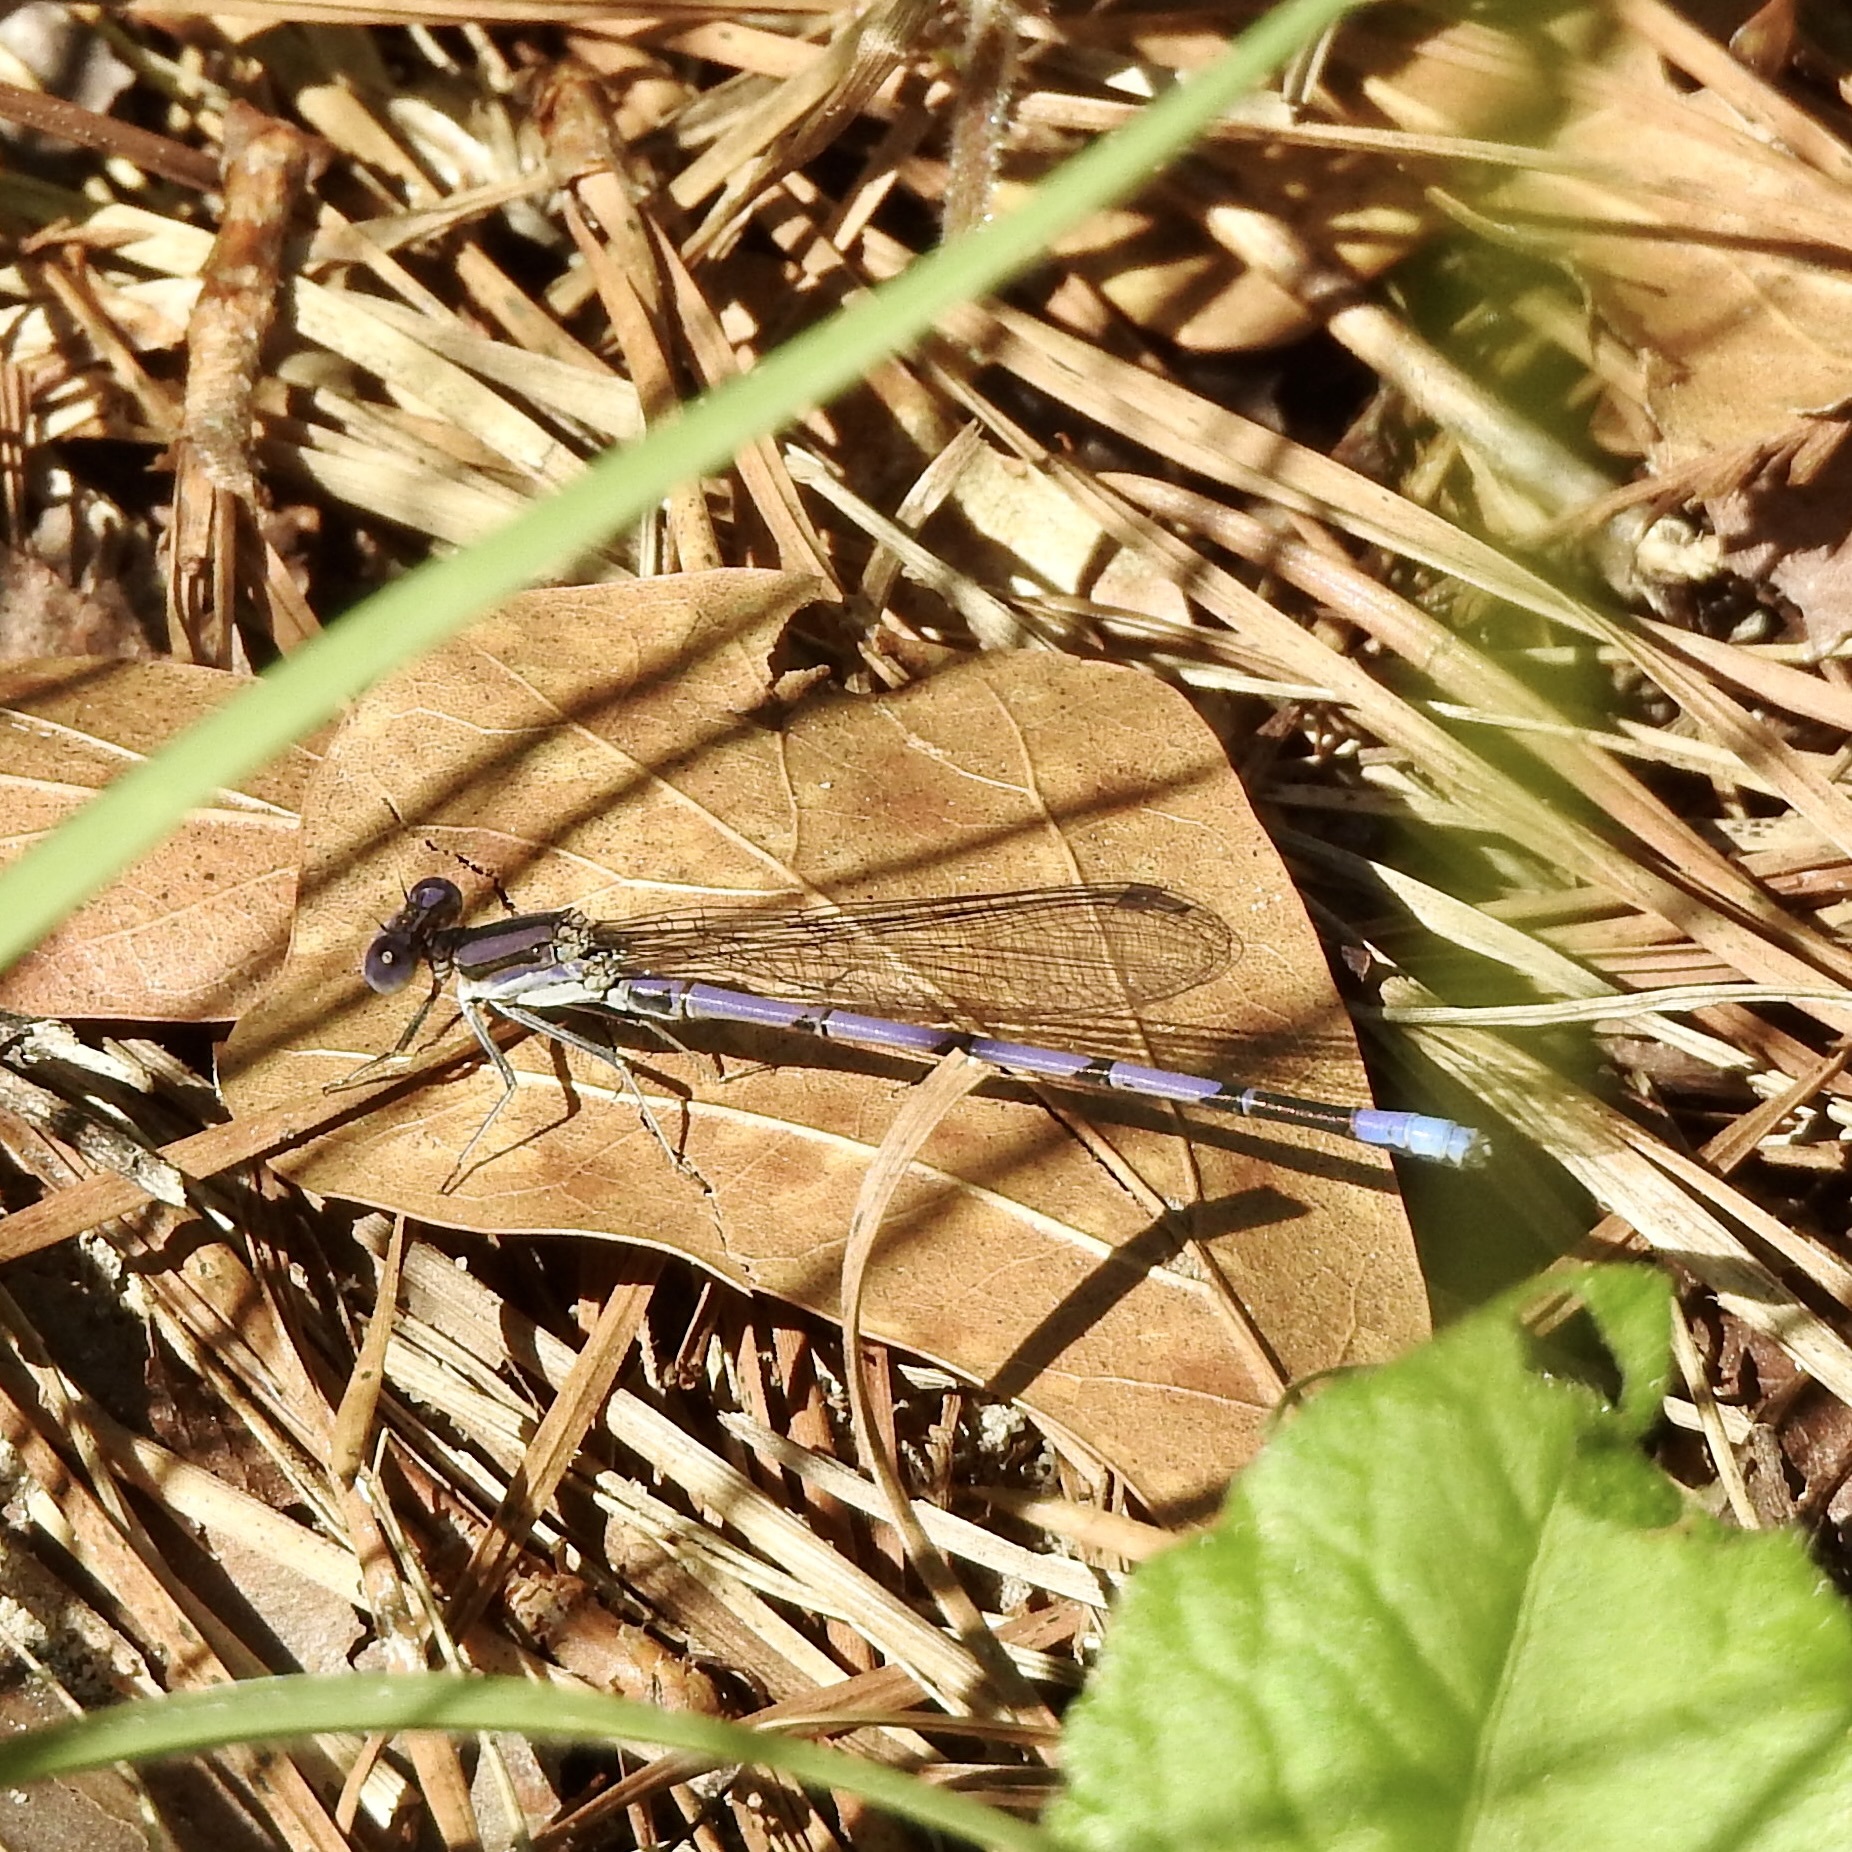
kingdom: Animalia
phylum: Arthropoda
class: Insecta
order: Odonata
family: Coenagrionidae
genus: Argia
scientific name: Argia fumipennis
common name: Variable dancer
